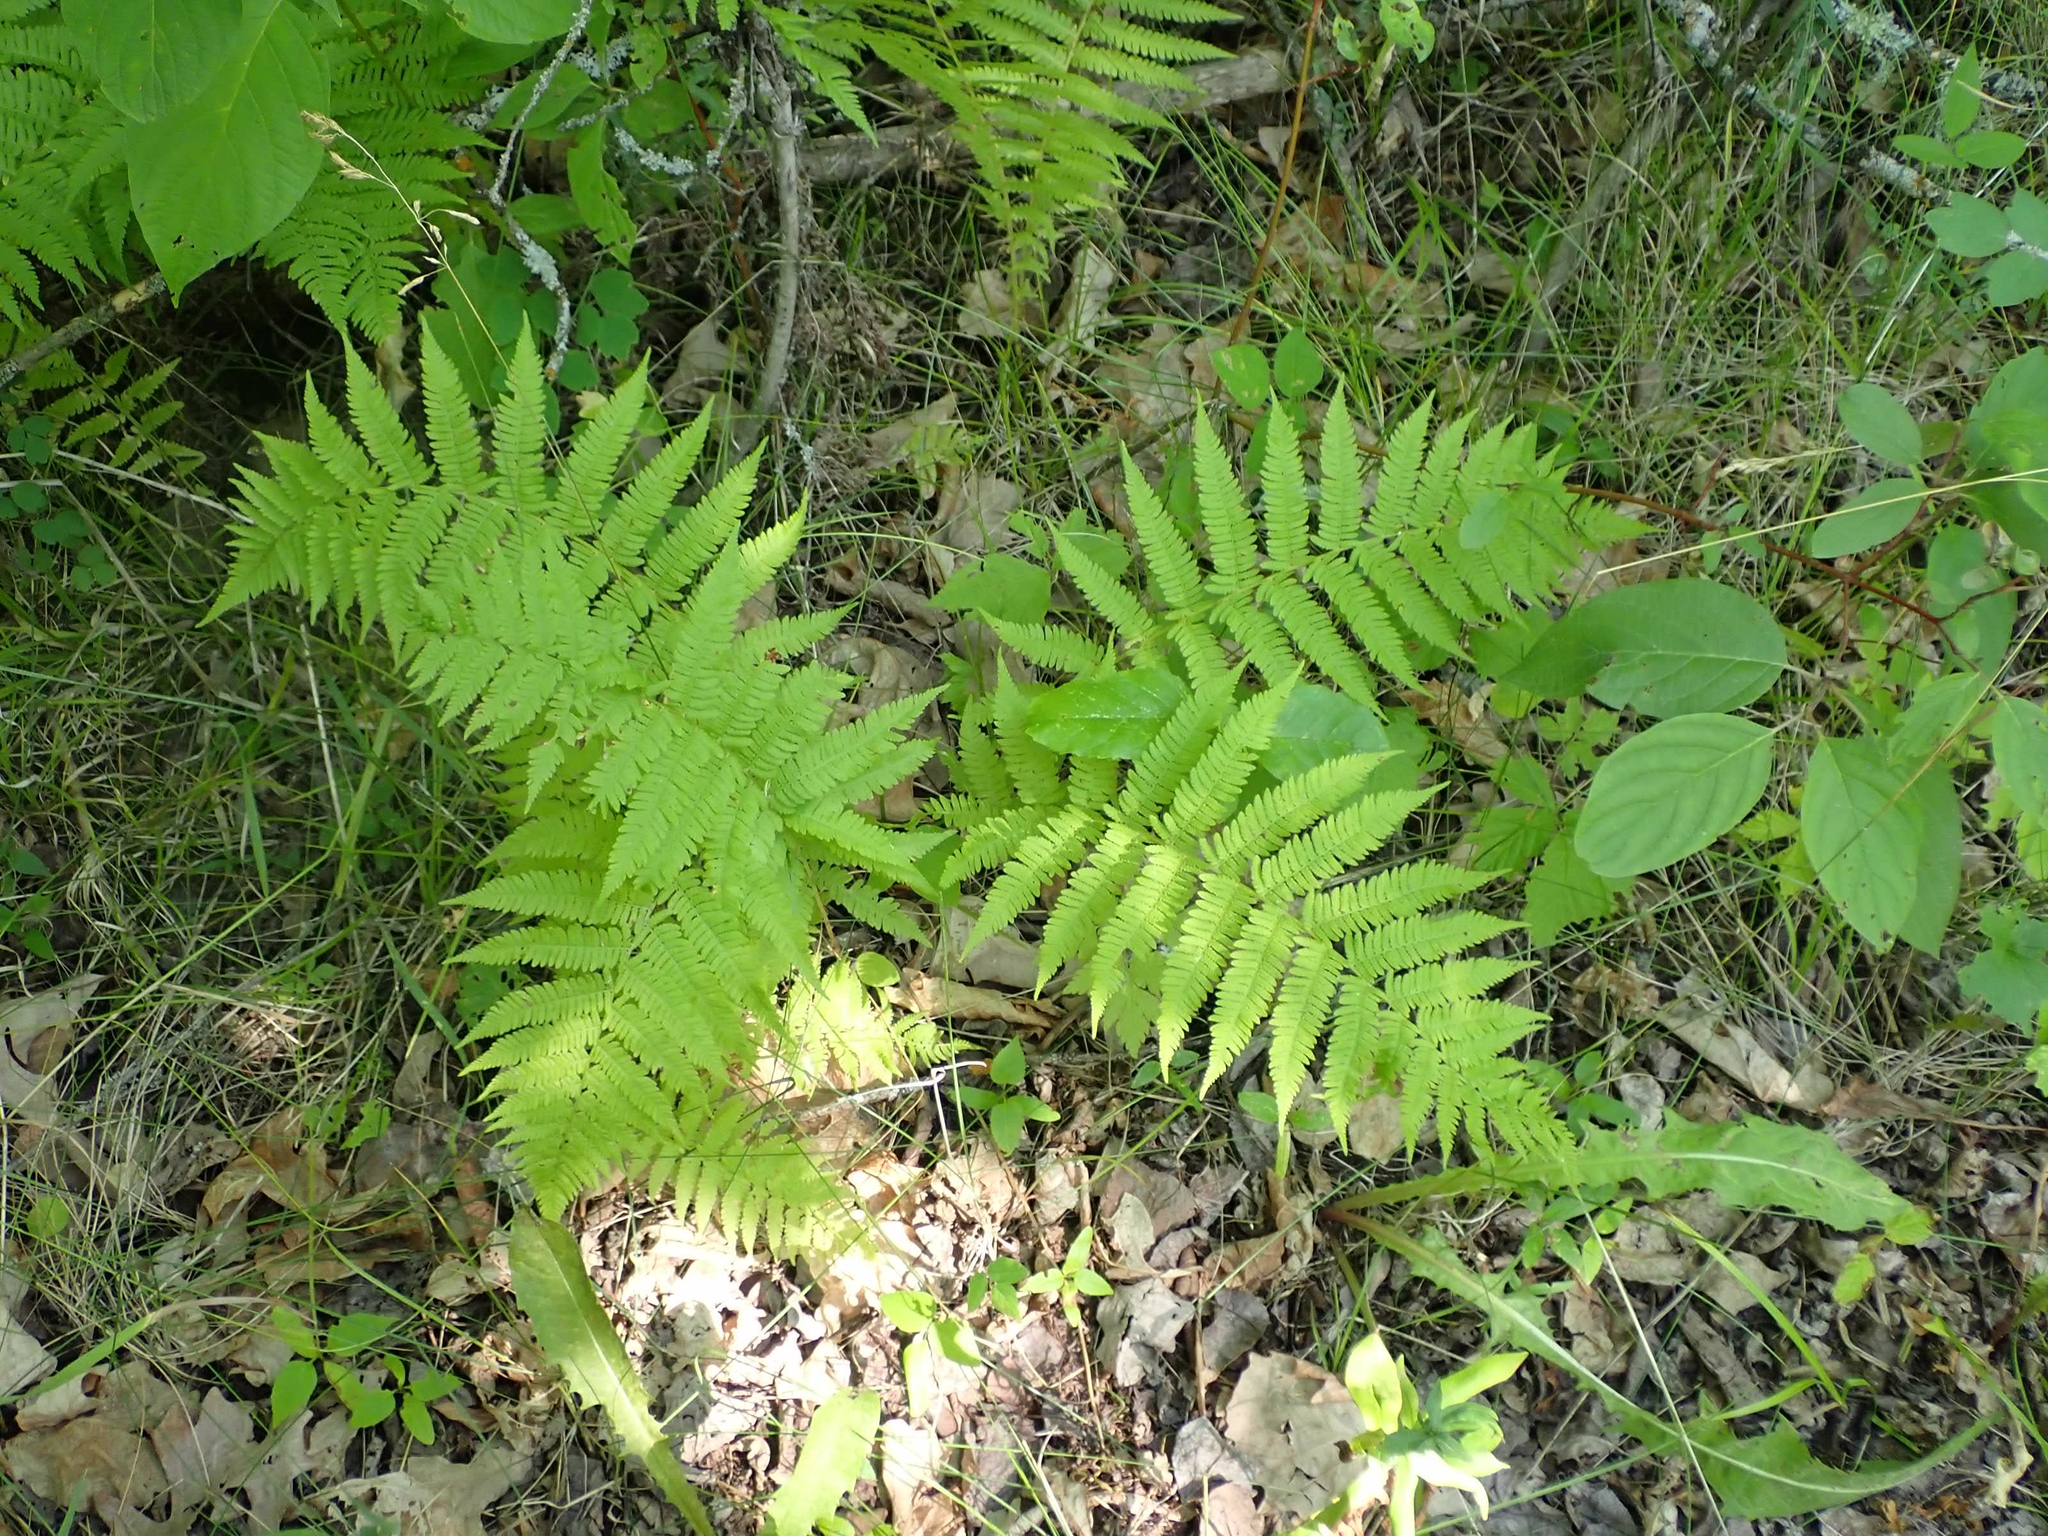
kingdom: Plantae
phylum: Tracheophyta
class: Polypodiopsida
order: Polypodiales
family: Athyriaceae
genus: Athyrium
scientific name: Athyrium angustum
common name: Northern lady fern
